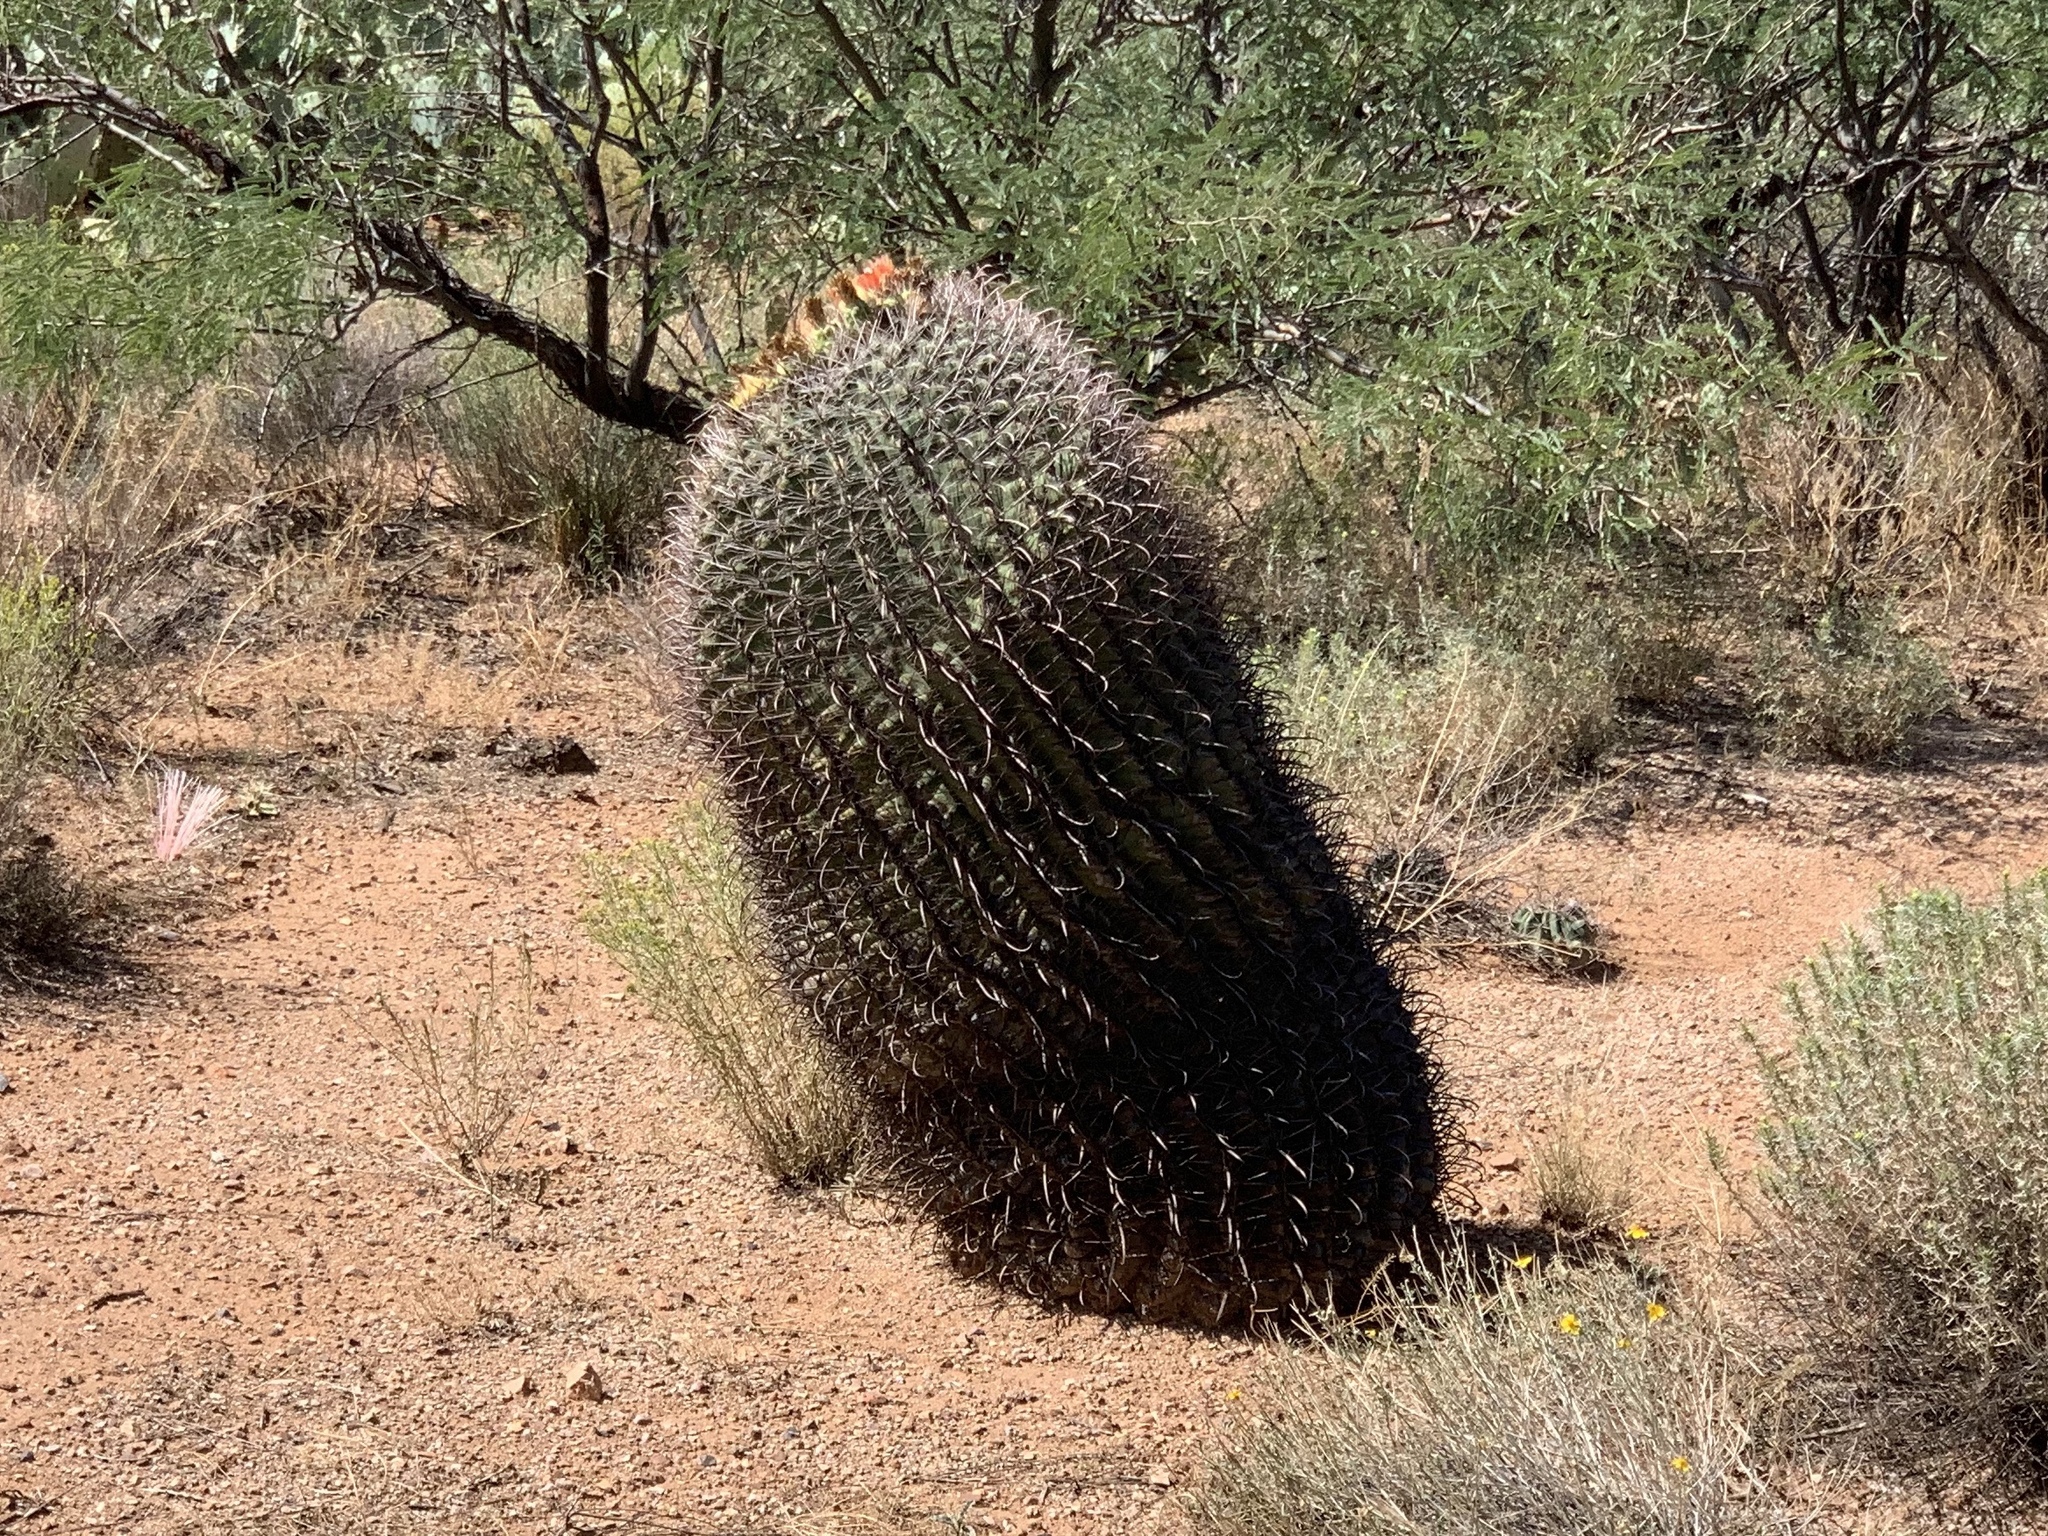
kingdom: Plantae
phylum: Tracheophyta
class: Magnoliopsida
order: Caryophyllales
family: Cactaceae
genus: Ferocactus
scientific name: Ferocactus wislizeni
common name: Candy barrel cactus
